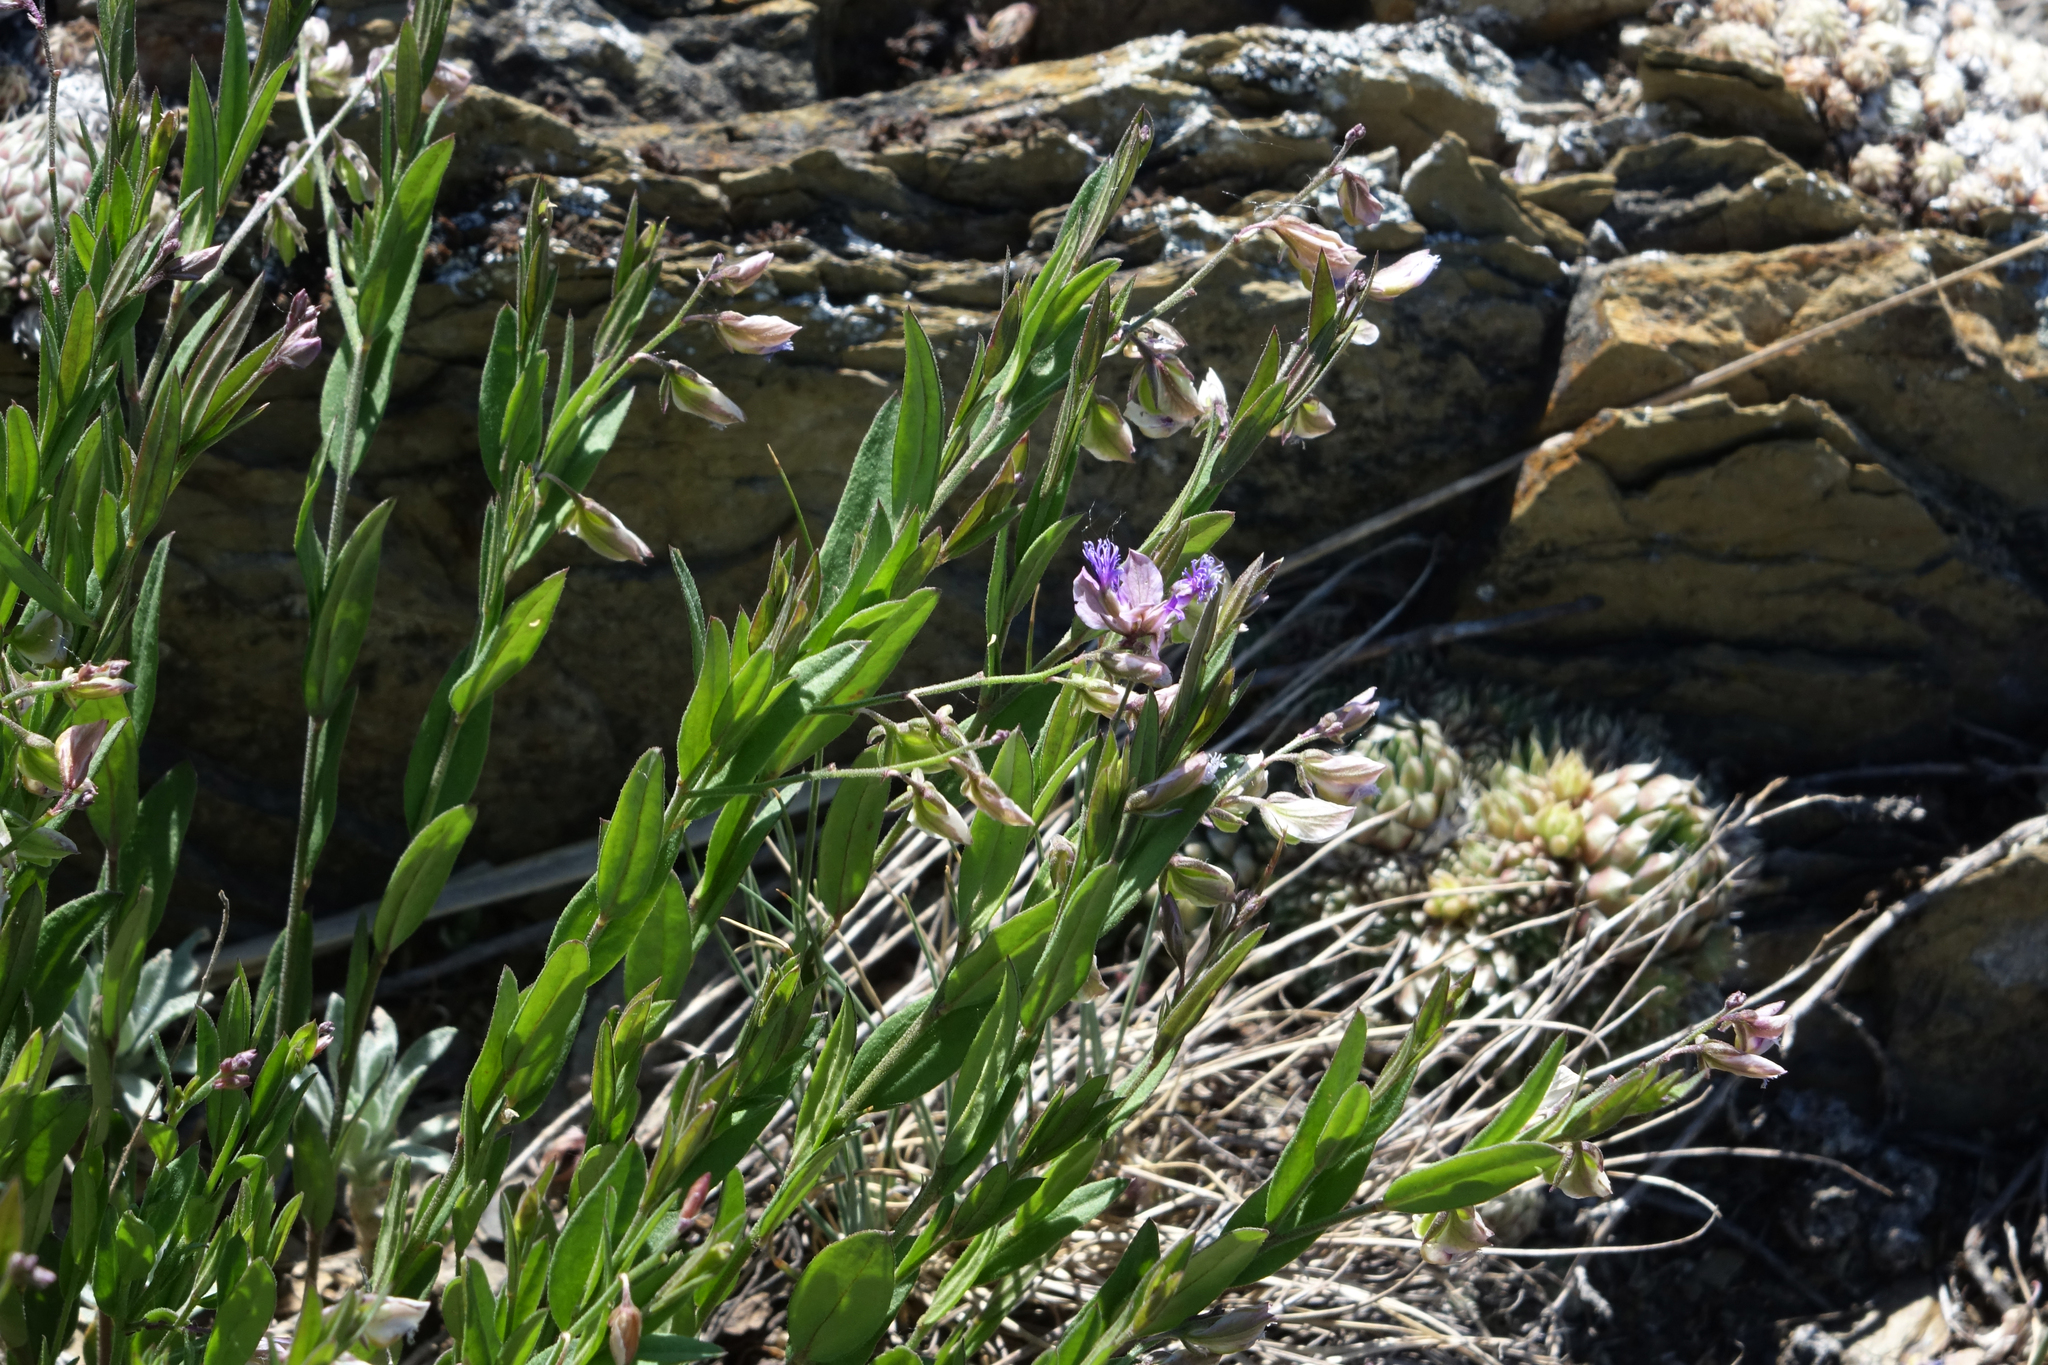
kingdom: Plantae
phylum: Tracheophyta
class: Magnoliopsida
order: Fabales
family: Polygalaceae
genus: Polygala
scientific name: Polygala sibirica
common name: Siberian polygala
